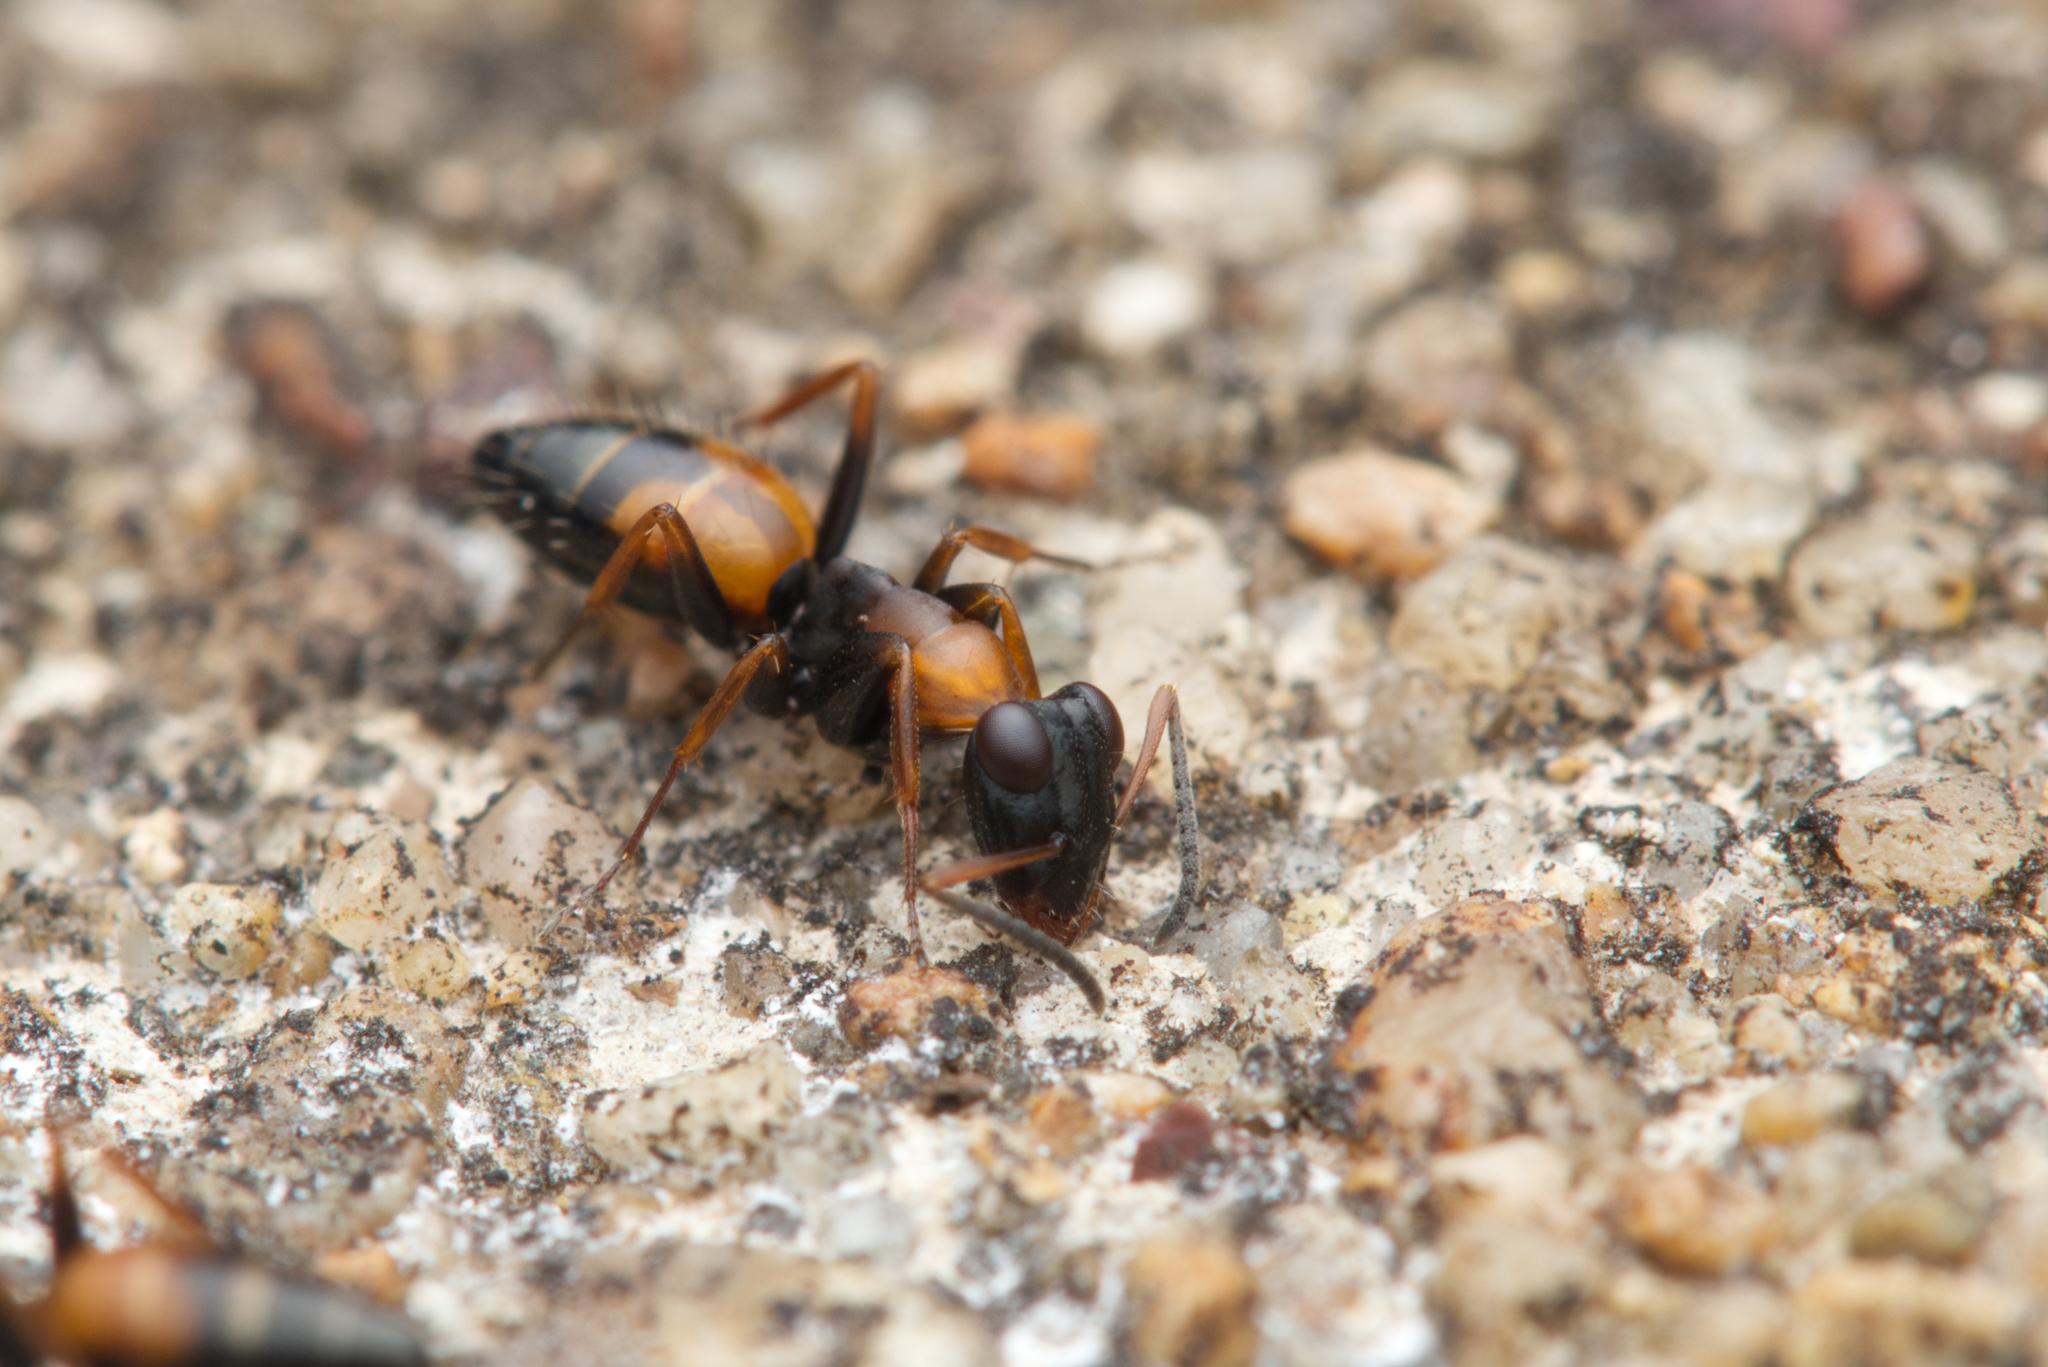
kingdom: Animalia
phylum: Arthropoda
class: Insecta
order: Hymenoptera
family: Formicidae
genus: Opisthopsis
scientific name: Opisthopsis pictus
